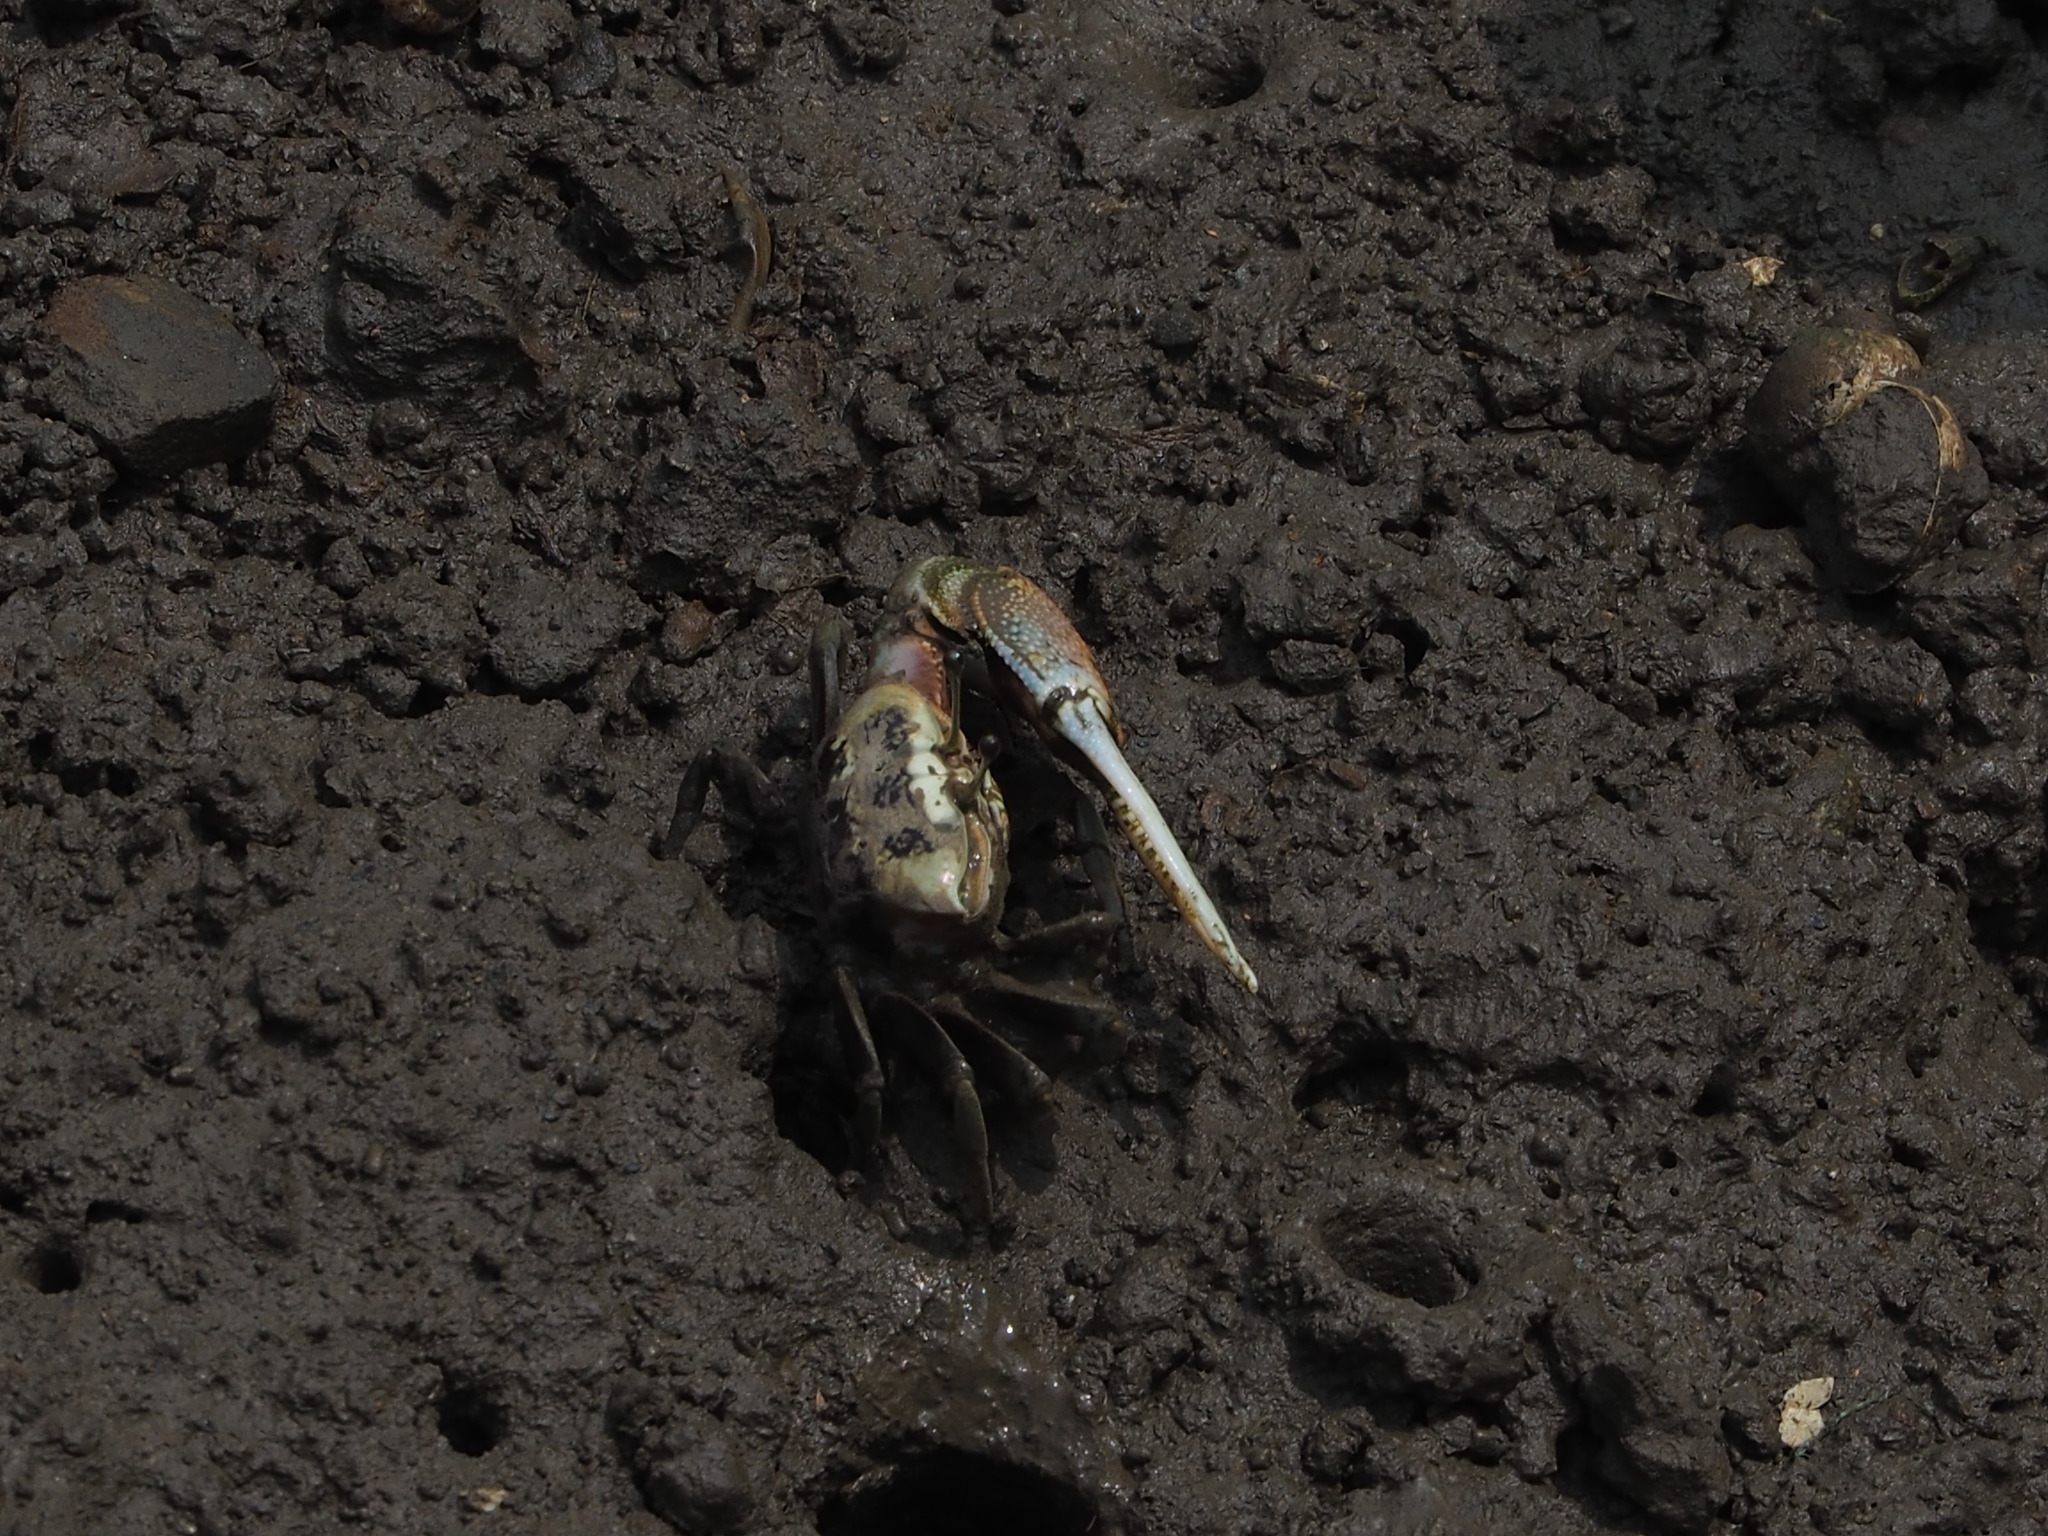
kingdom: Animalia
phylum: Arthropoda
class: Malacostraca
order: Decapoda
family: Ocypodidae
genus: Tubuca
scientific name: Tubuca arcuata
